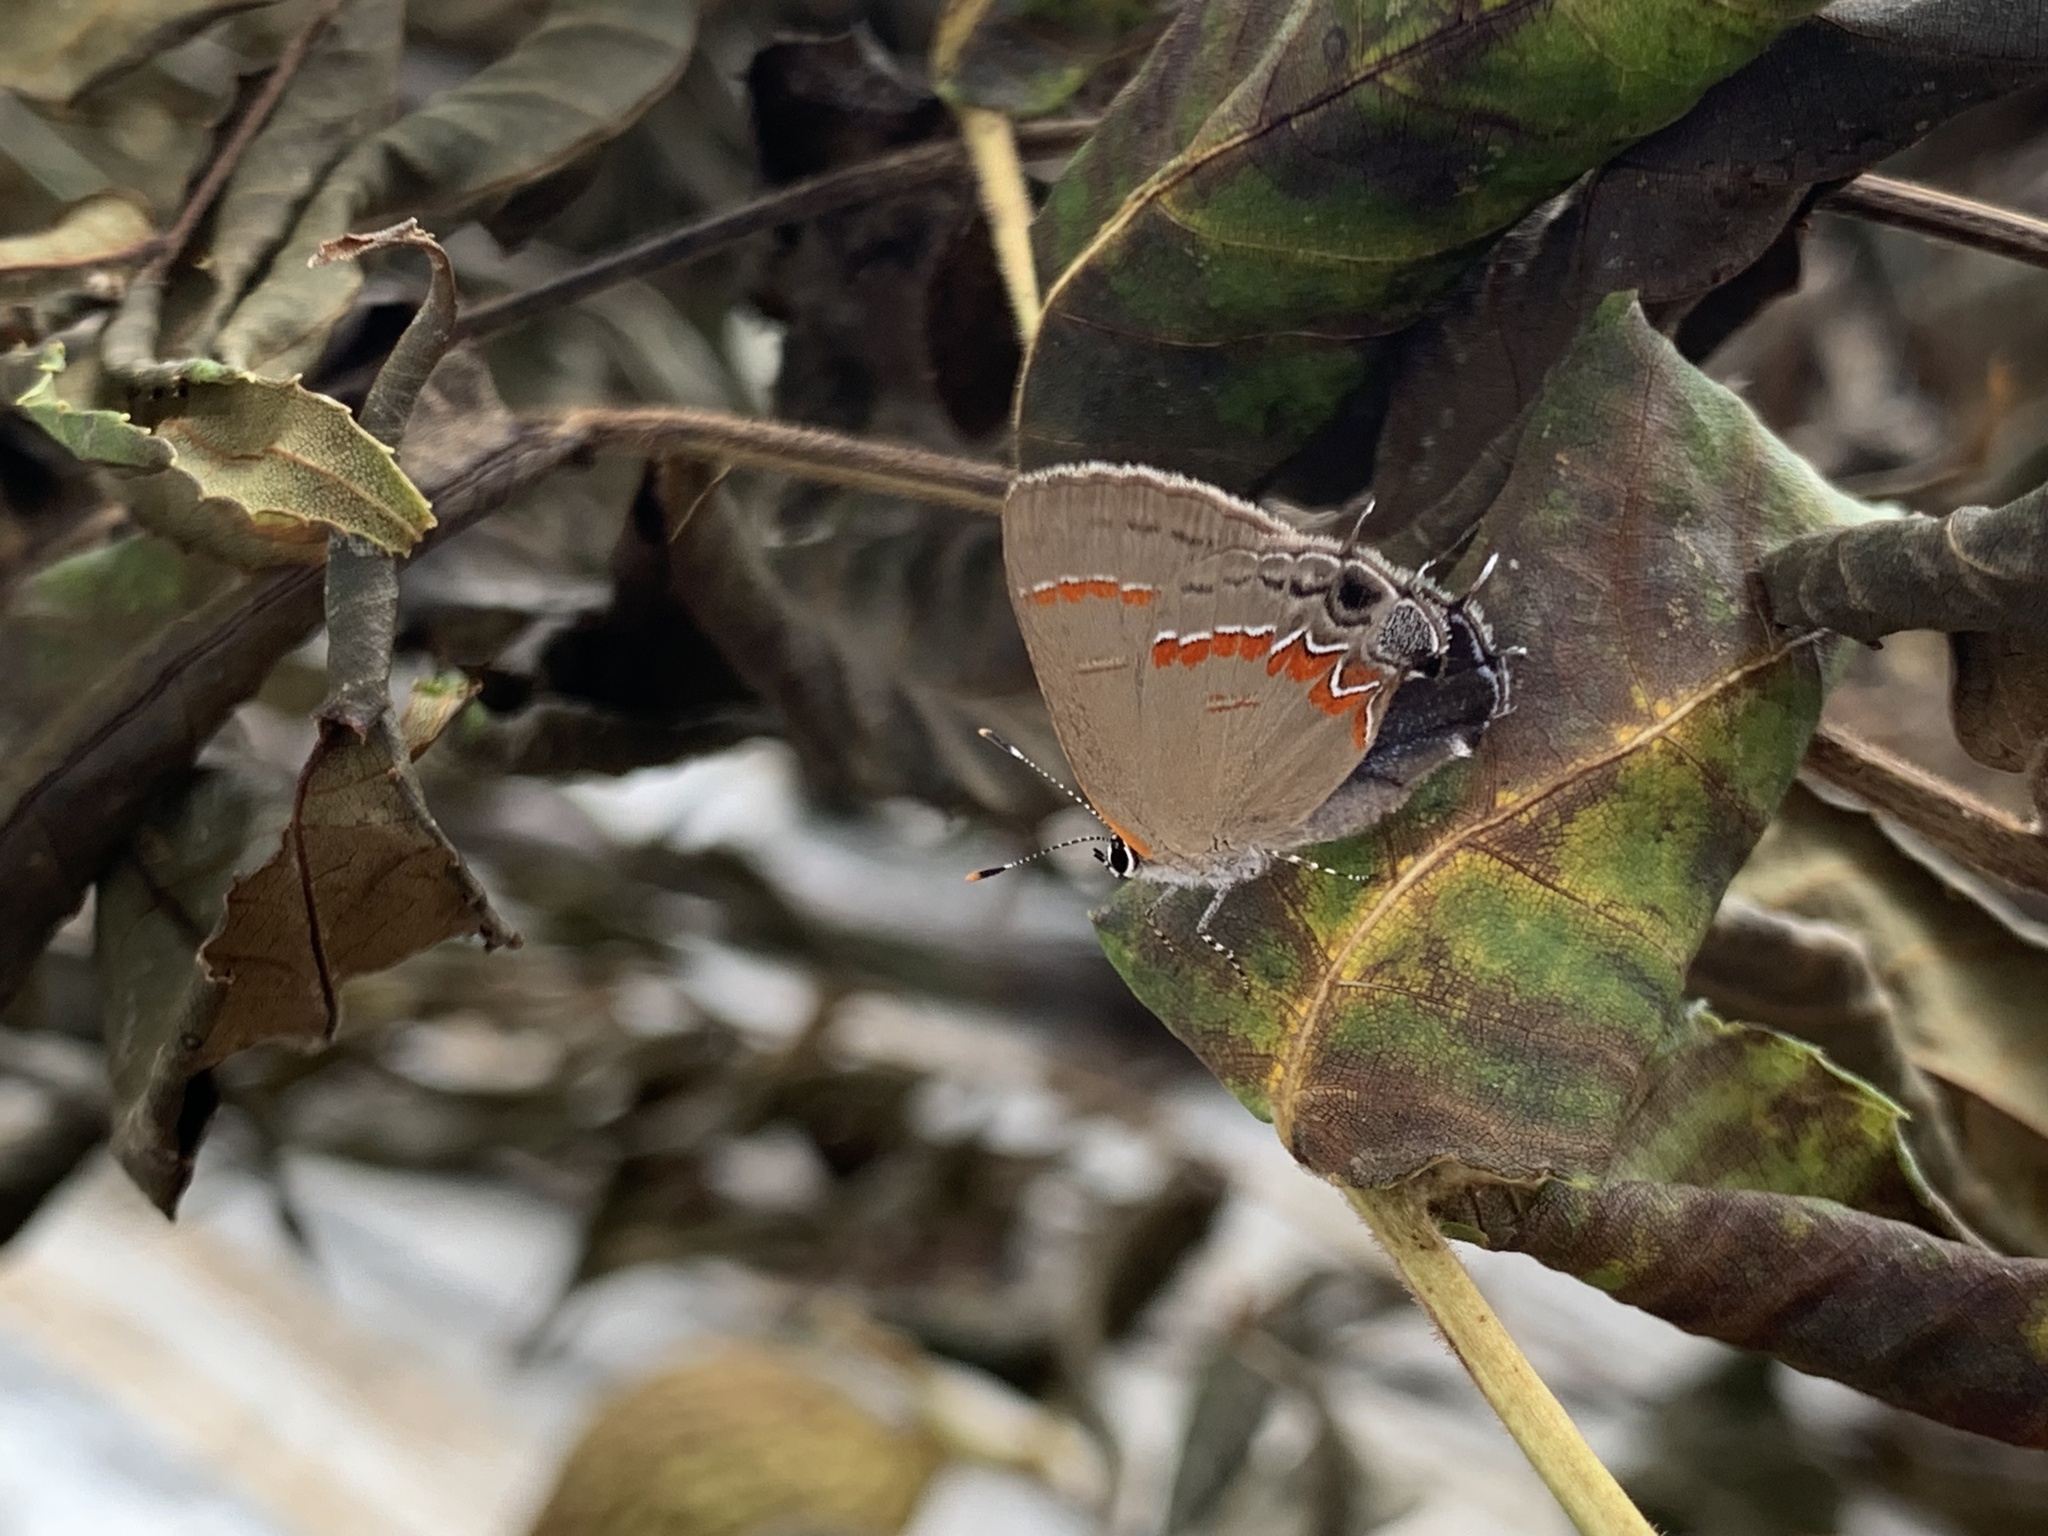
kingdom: Animalia
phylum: Arthropoda
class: Insecta
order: Lepidoptera
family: Lycaenidae
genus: Calycopis
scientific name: Calycopis cecrops
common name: Red-banded hairstreak
